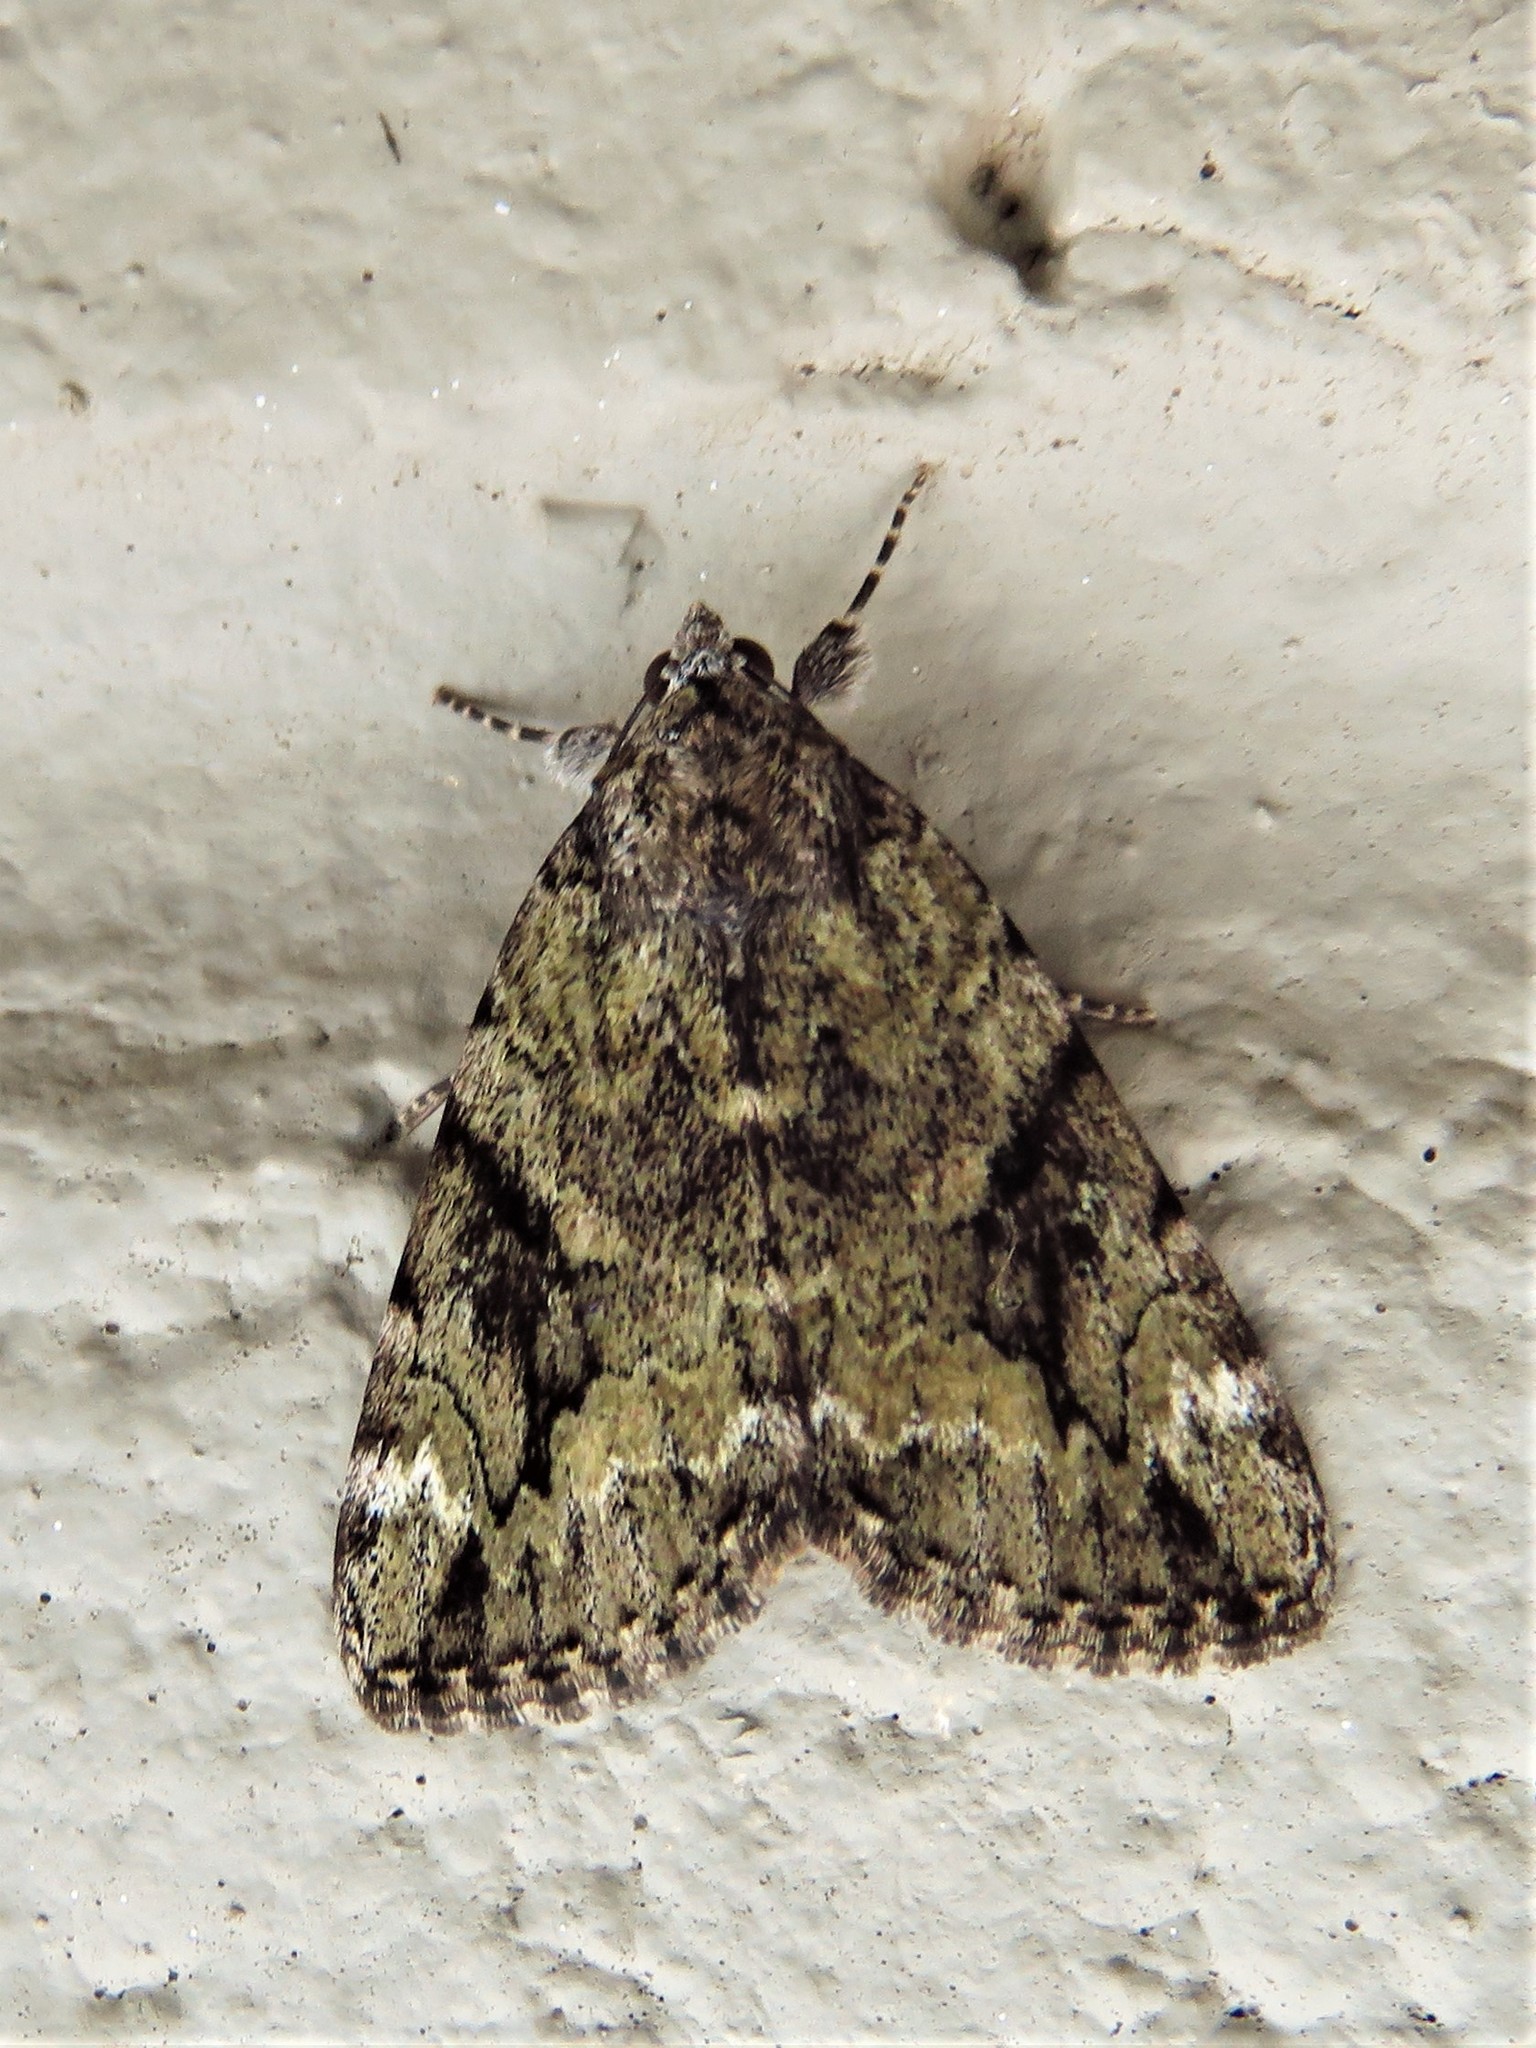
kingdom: Animalia
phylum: Arthropoda
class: Insecta
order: Lepidoptera
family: Erebidae
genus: Catocala
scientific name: Catocala micronympha
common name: Little nymph underwing
